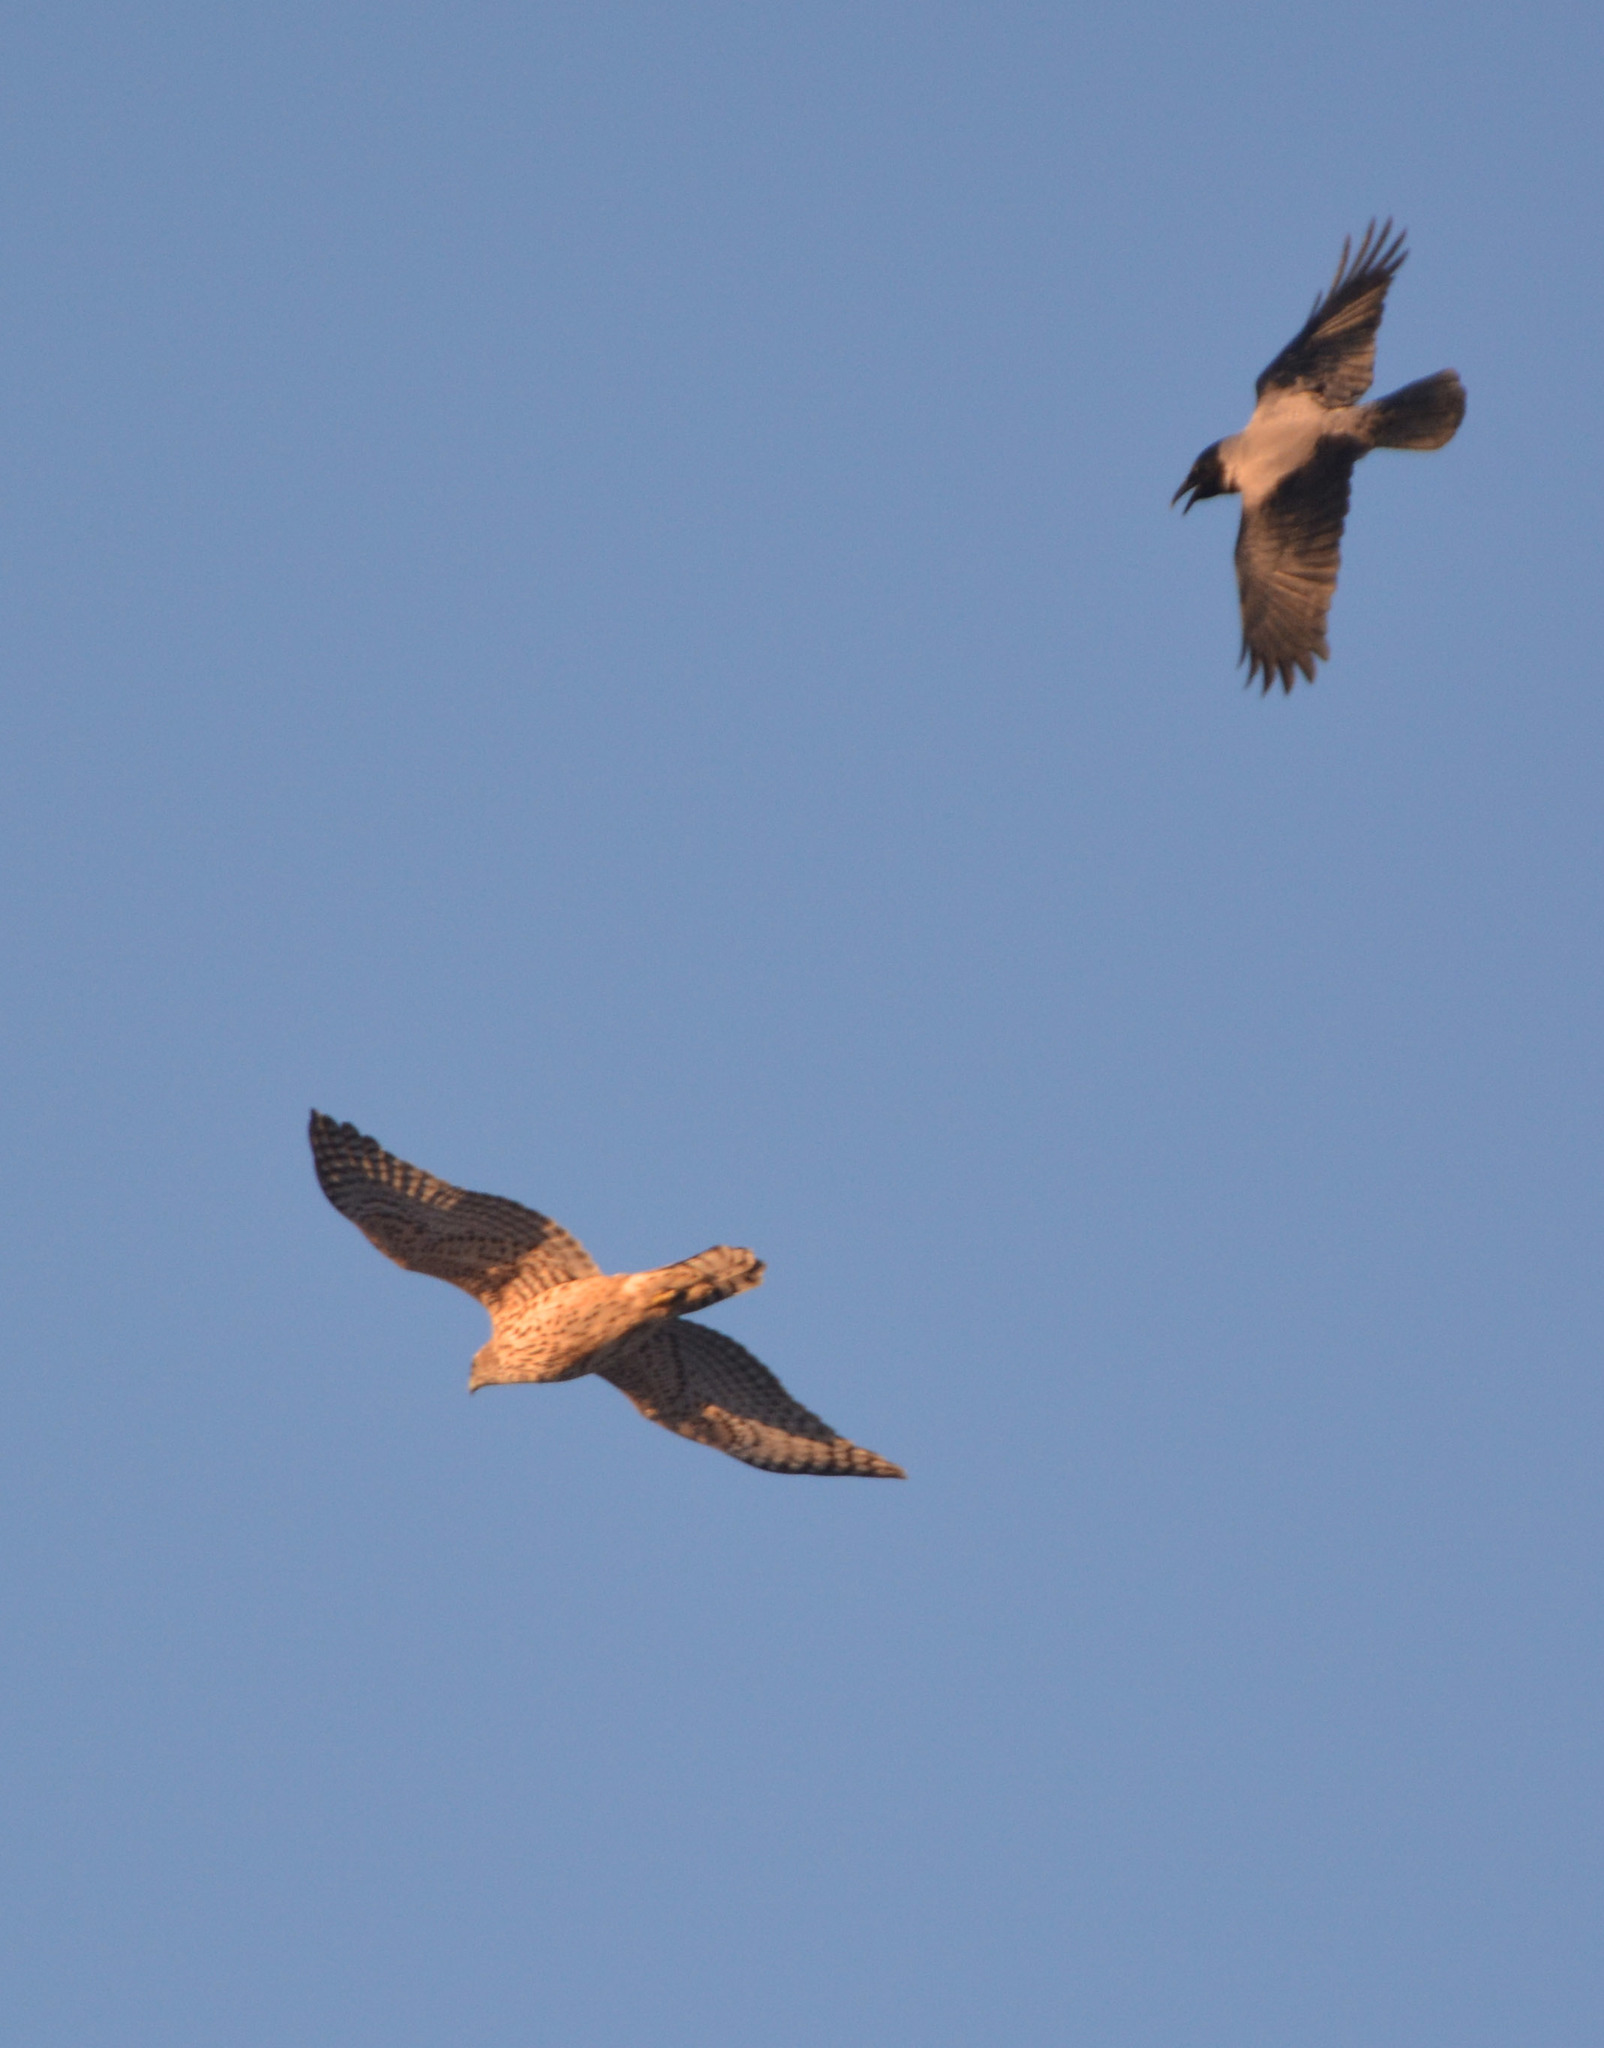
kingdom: Animalia
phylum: Chordata
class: Aves
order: Accipitriformes
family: Accipitridae
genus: Accipiter
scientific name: Accipiter gentilis
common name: Northern goshawk
